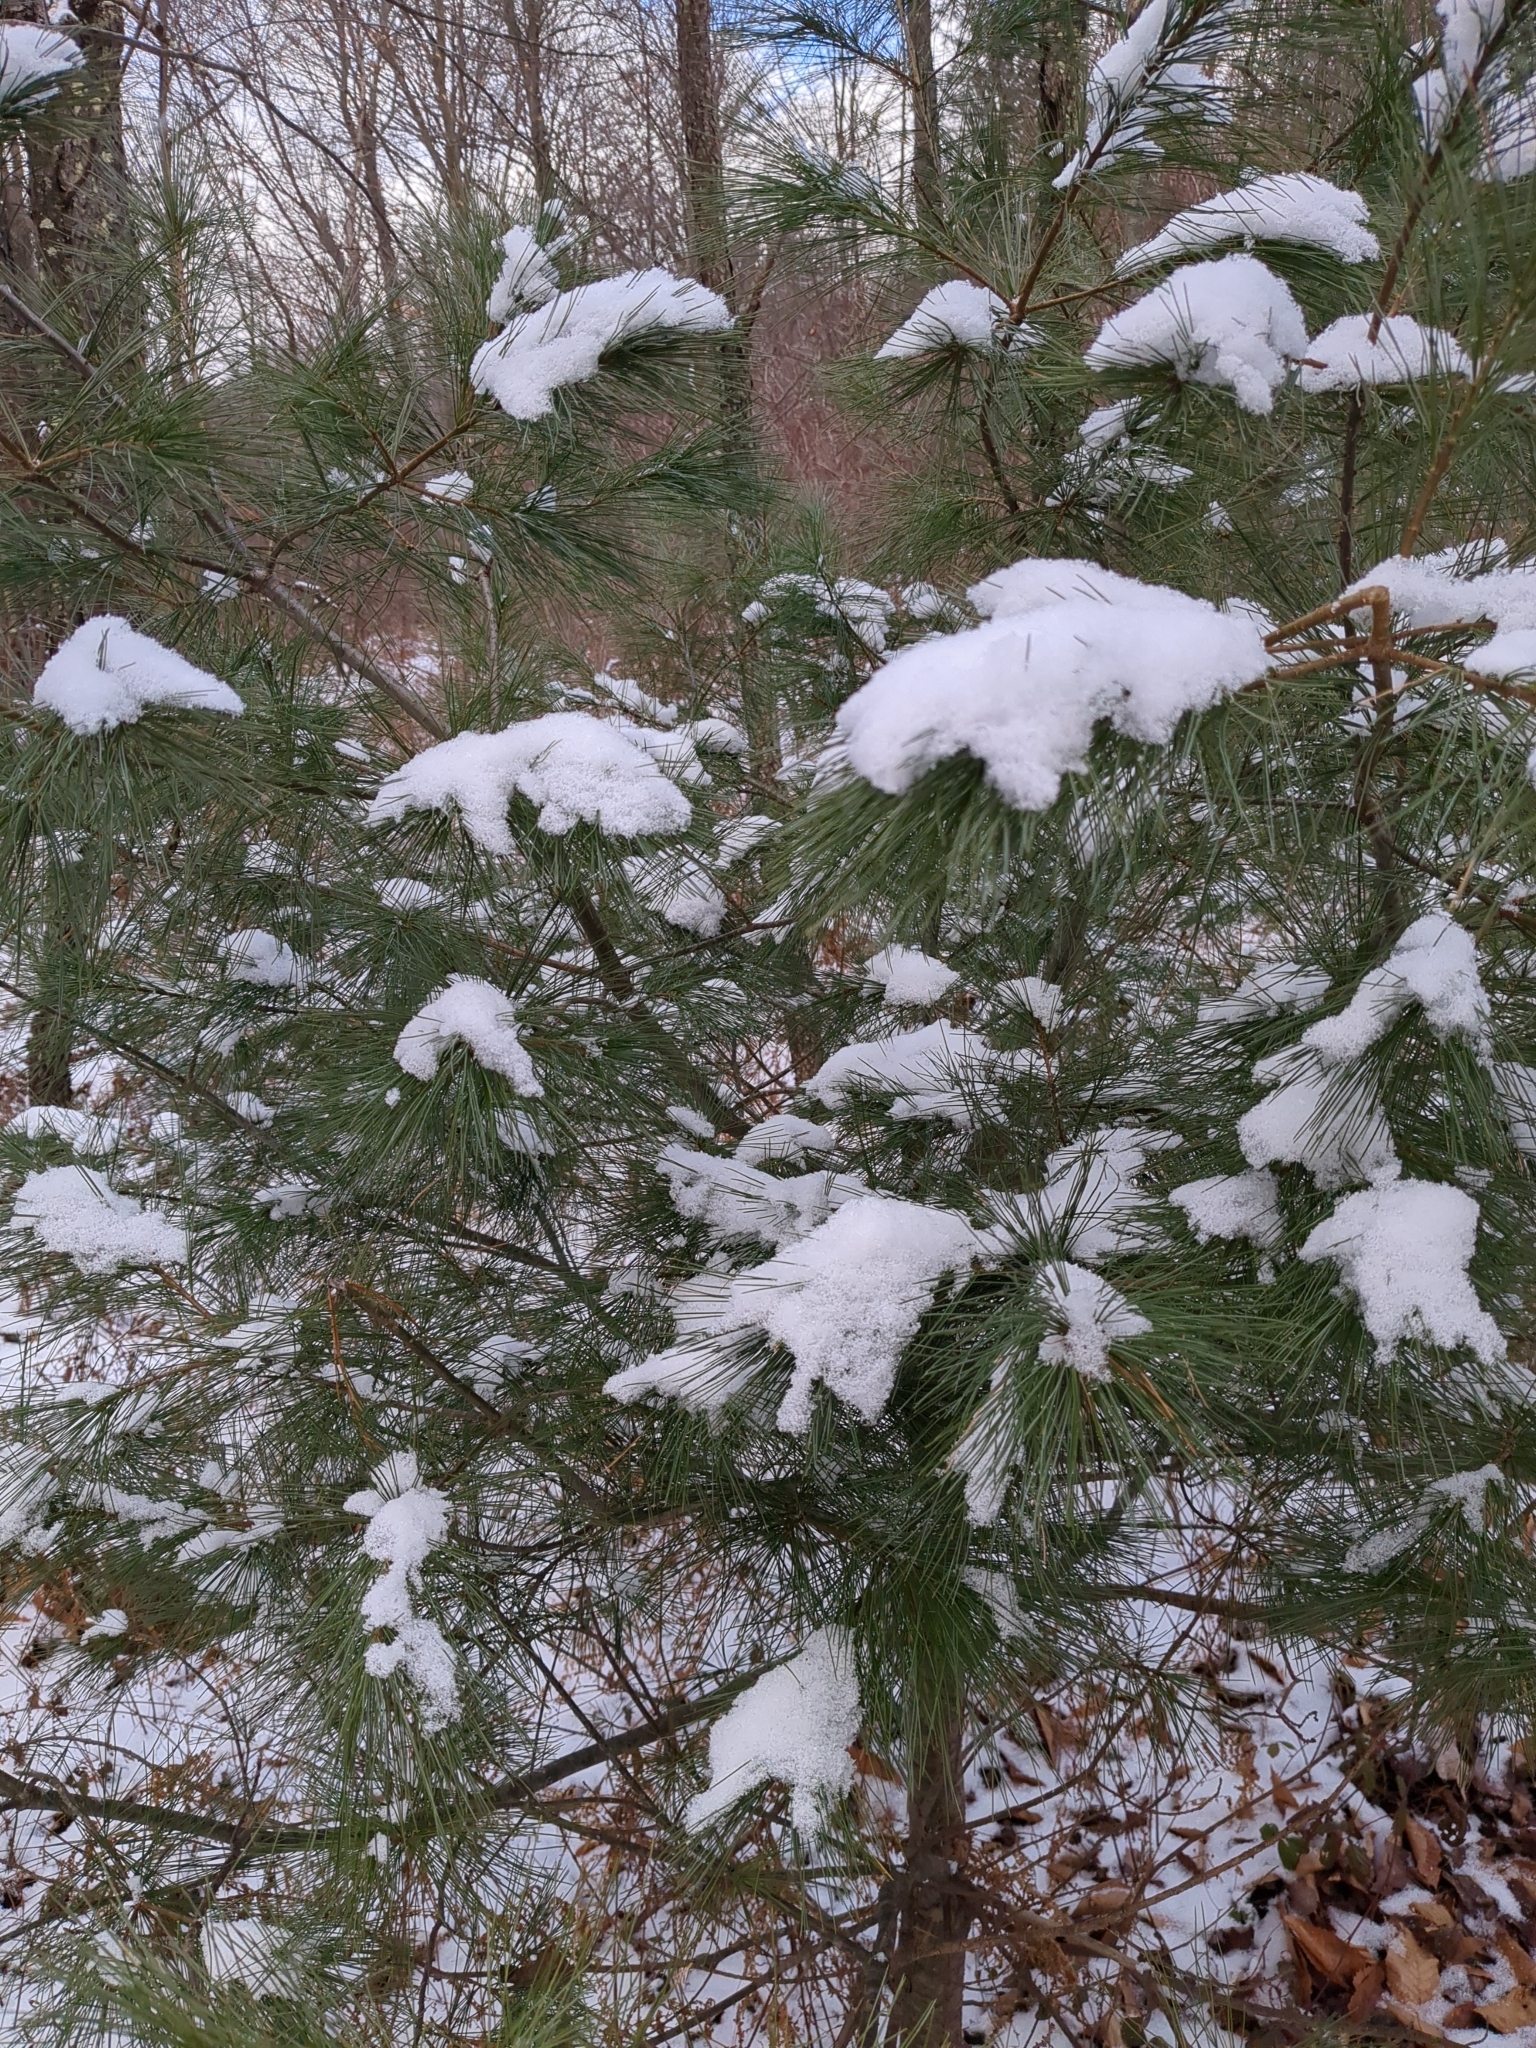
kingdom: Plantae
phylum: Tracheophyta
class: Pinopsida
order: Pinales
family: Pinaceae
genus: Pinus
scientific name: Pinus strobus
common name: Weymouth pine
